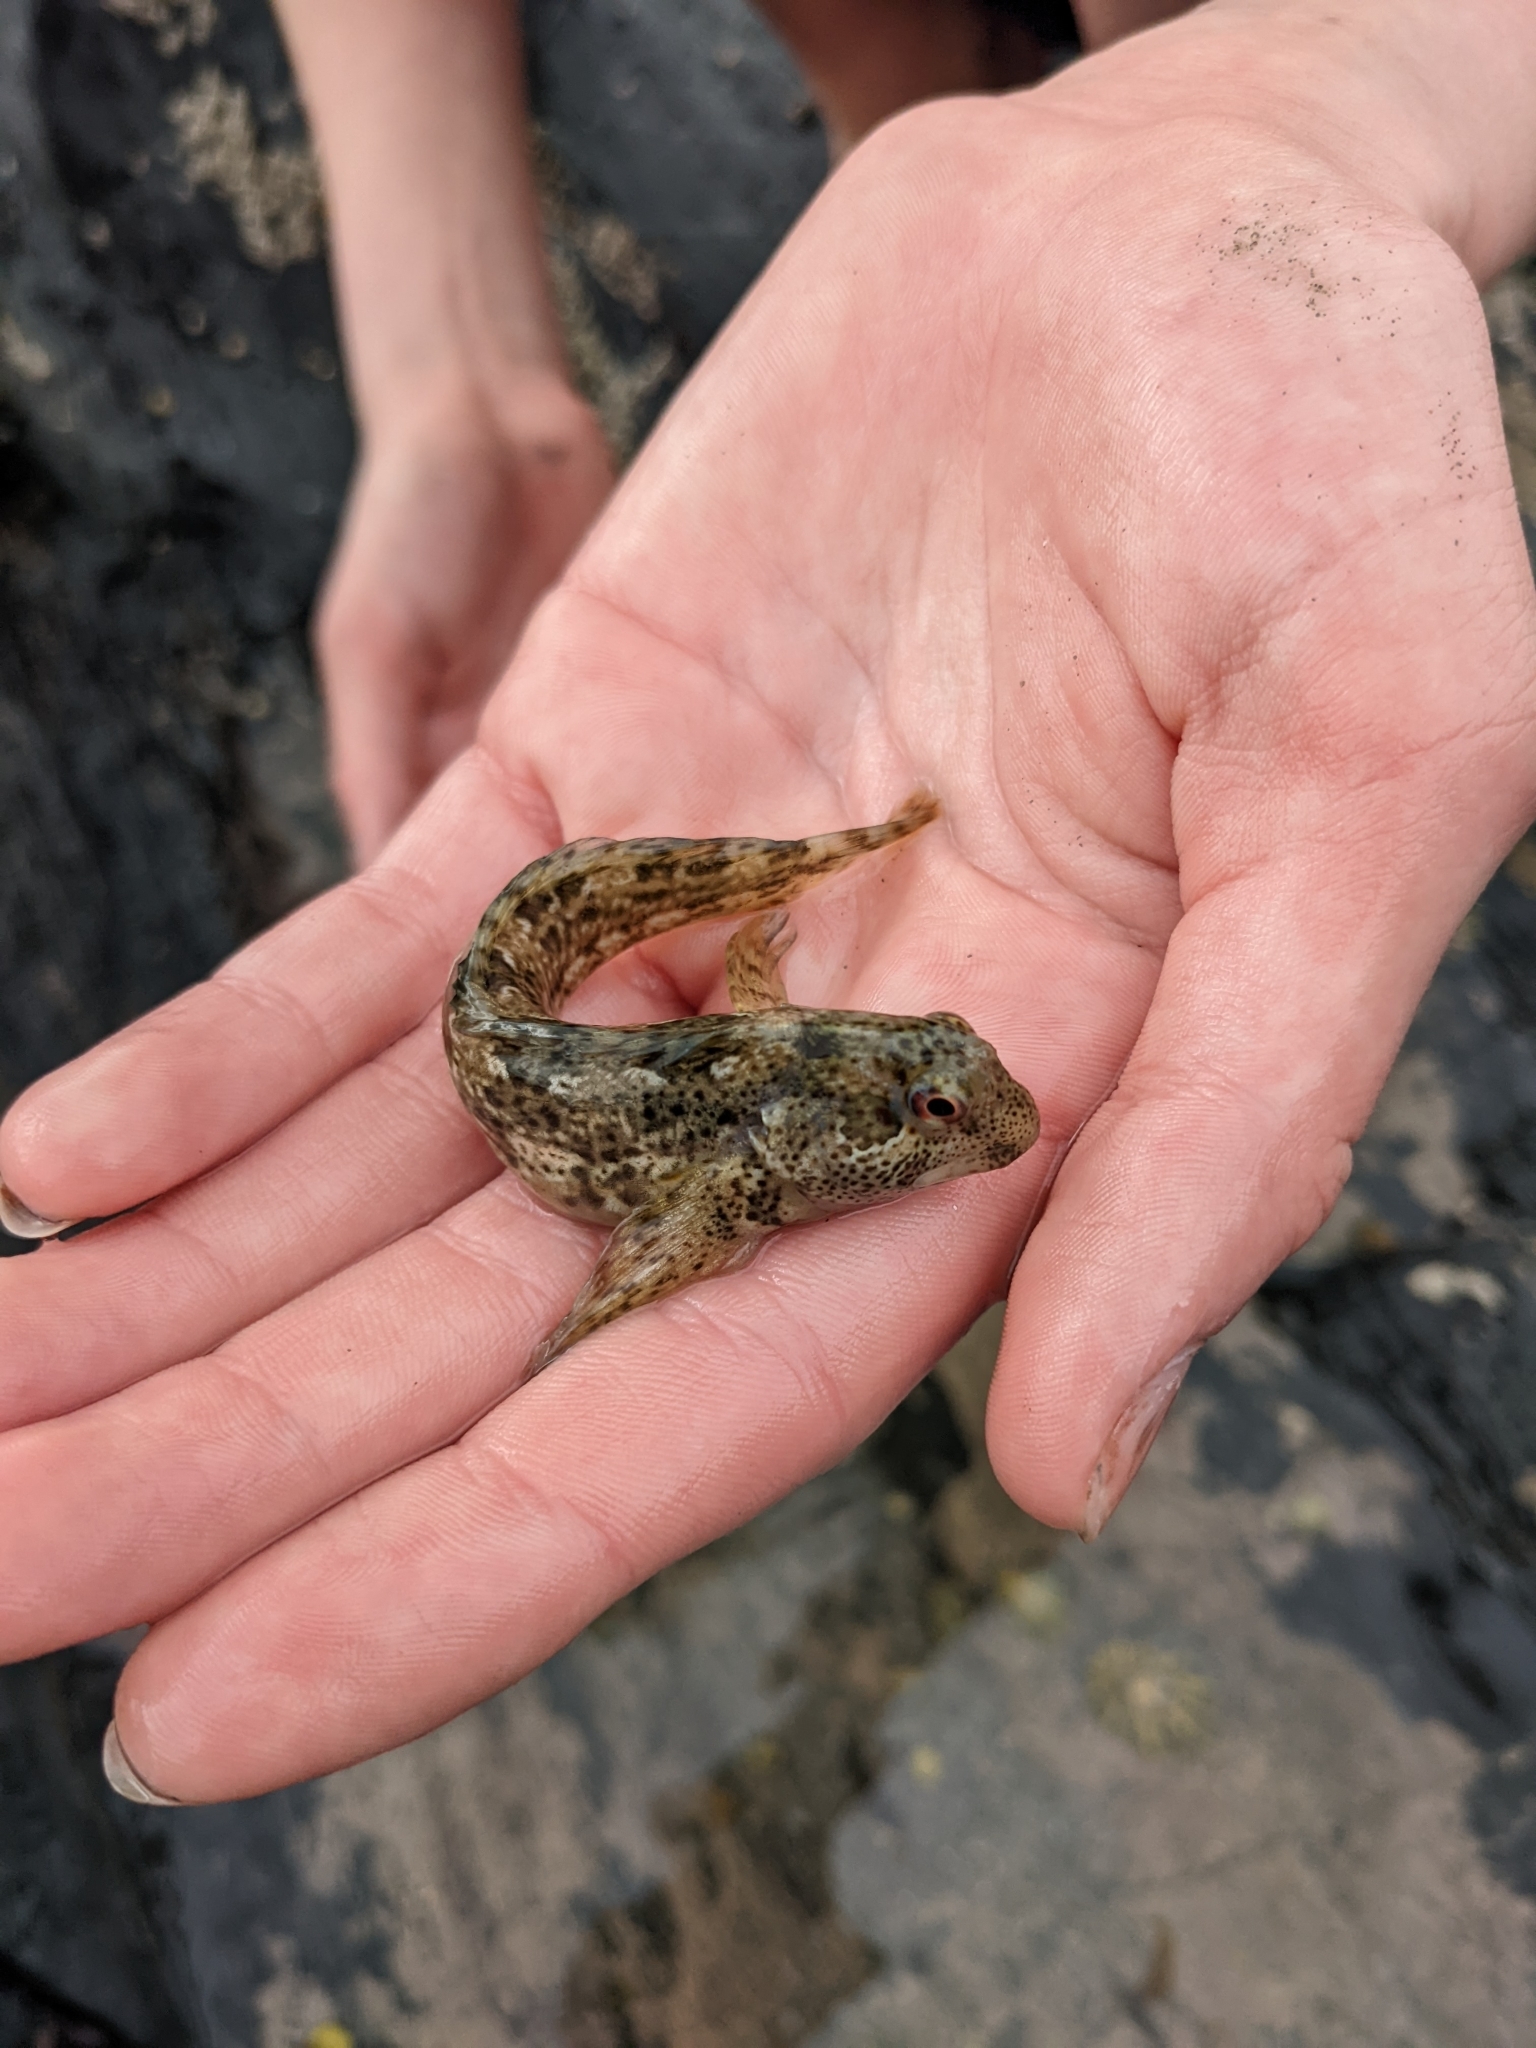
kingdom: Animalia
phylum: Chordata
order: Perciformes
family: Blenniidae
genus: Lipophrys
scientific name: Lipophrys pholis
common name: Shanny
